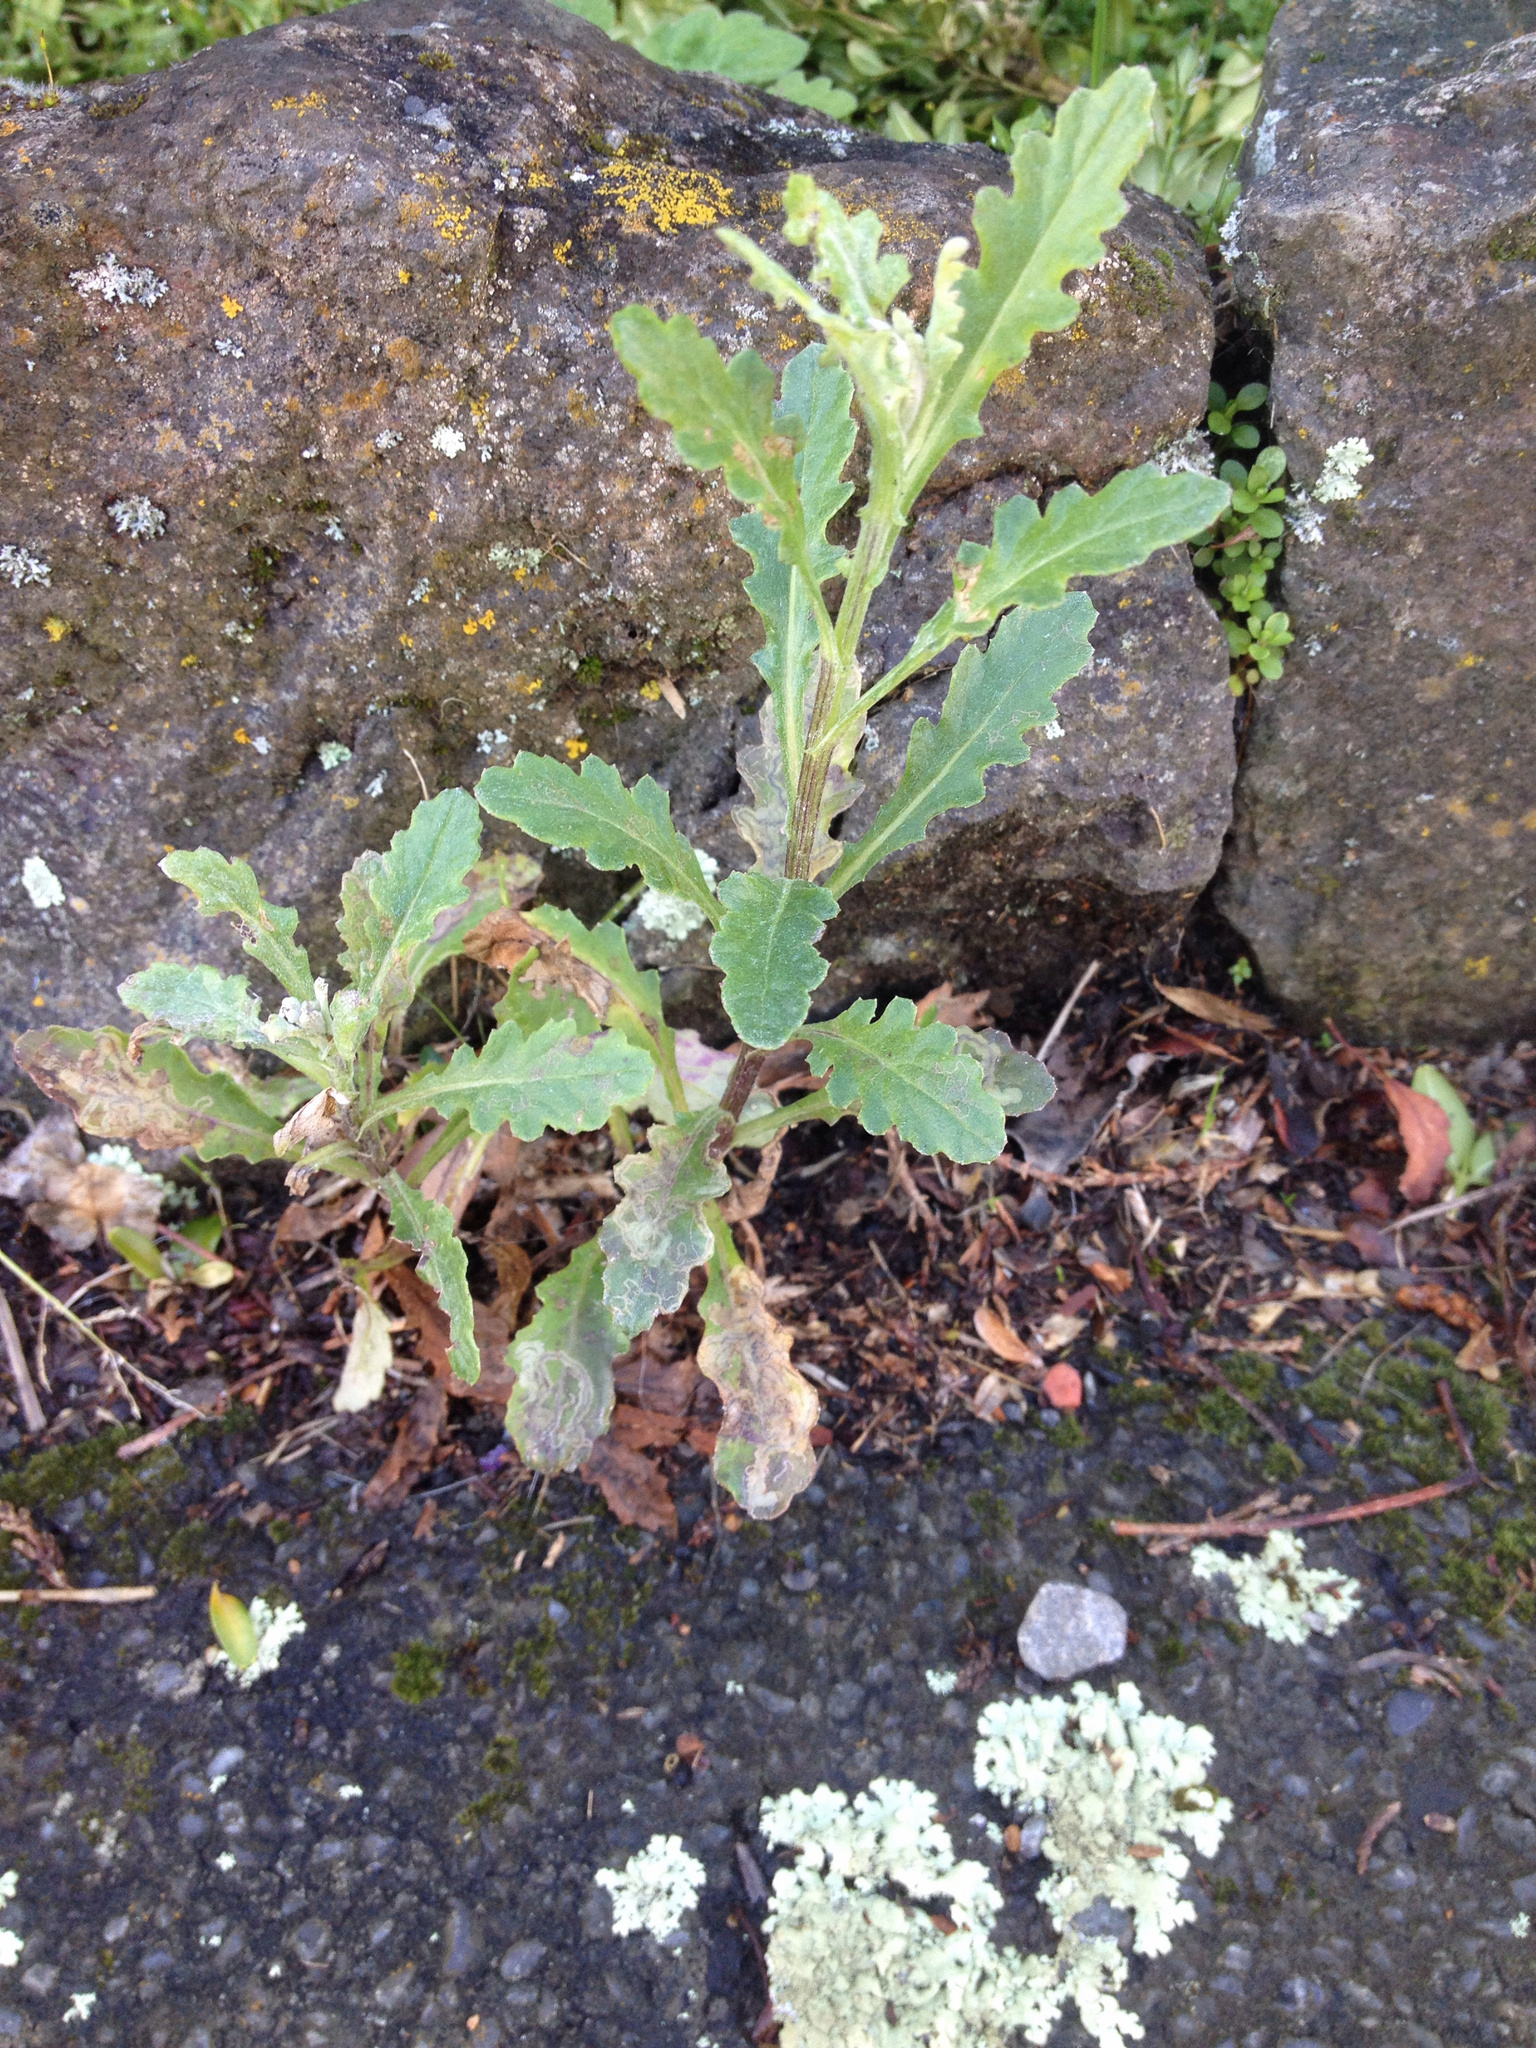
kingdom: Plantae
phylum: Tracheophyta
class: Magnoliopsida
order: Asterales
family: Asteraceae
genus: Senecio
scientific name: Senecio glomeratus
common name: Cutleaf burnweed
